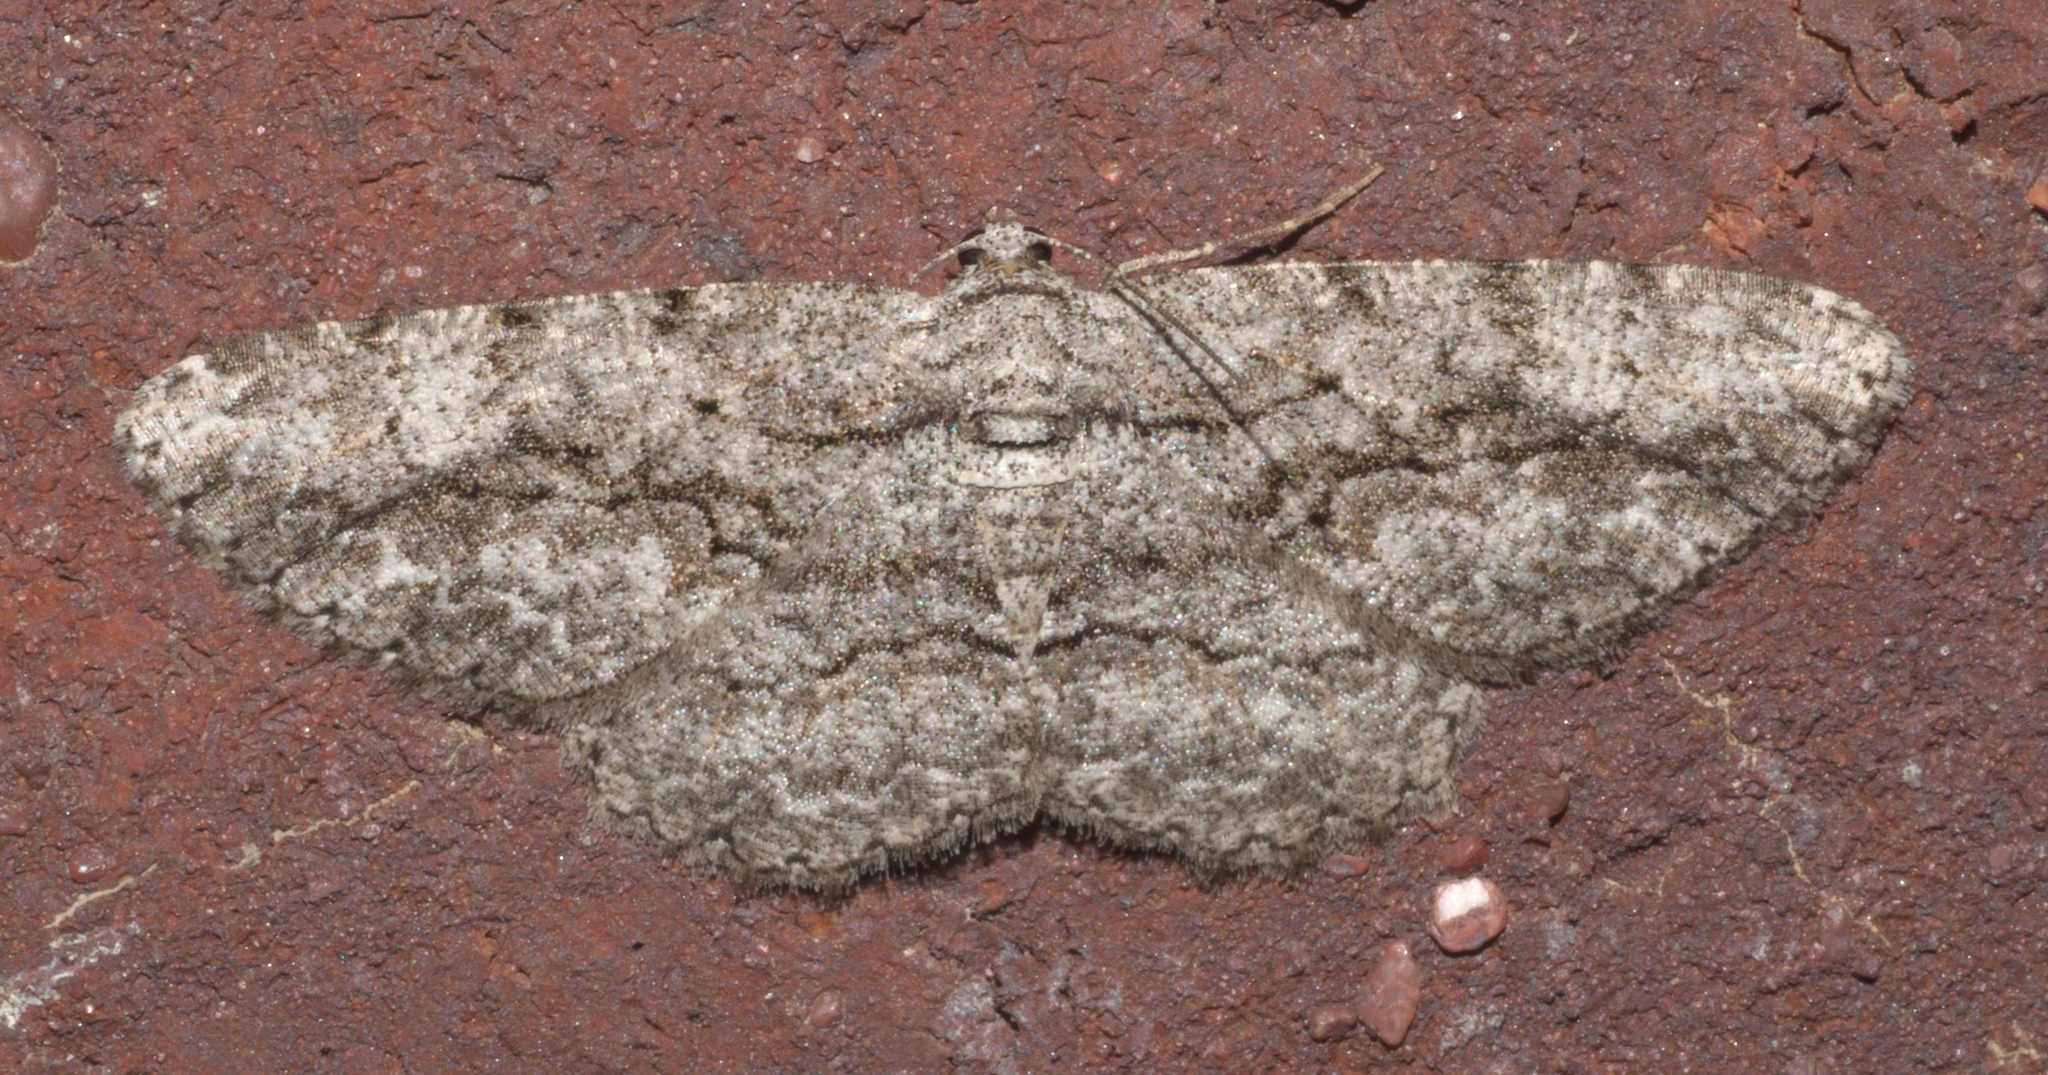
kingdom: Animalia
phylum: Arthropoda
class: Insecta
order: Lepidoptera
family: Geometridae
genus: Anavitrinella
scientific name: Anavitrinella pampinaria
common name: Common gray
